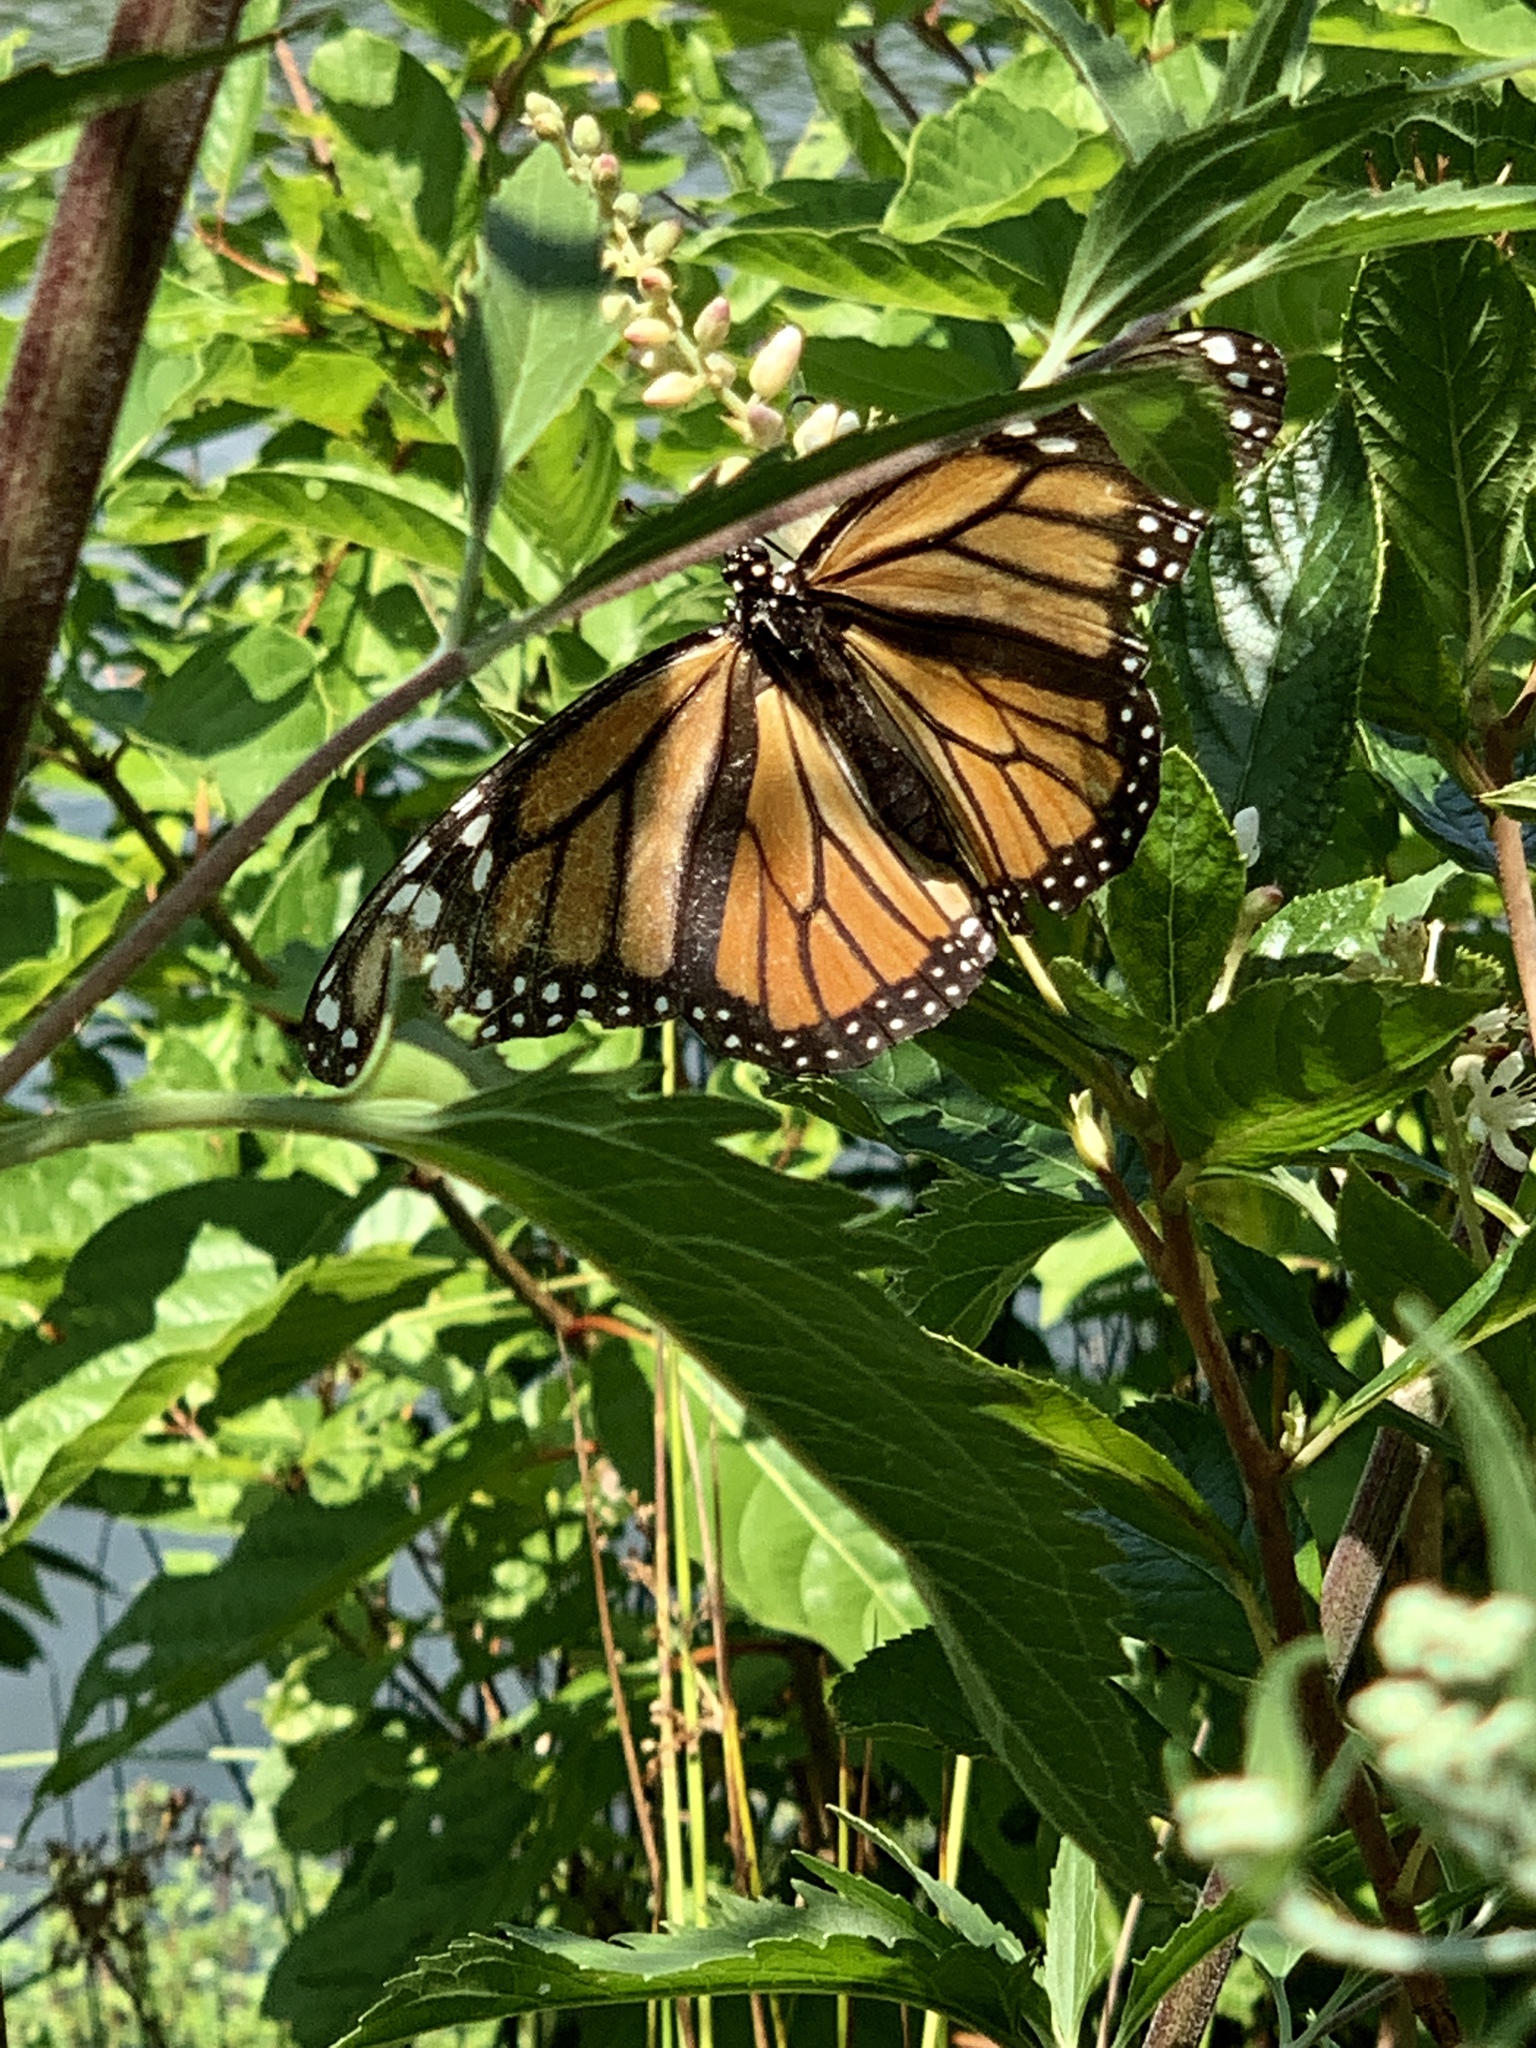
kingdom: Animalia
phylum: Arthropoda
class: Insecta
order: Lepidoptera
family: Nymphalidae
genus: Danaus
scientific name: Danaus plexippus
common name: Monarch
